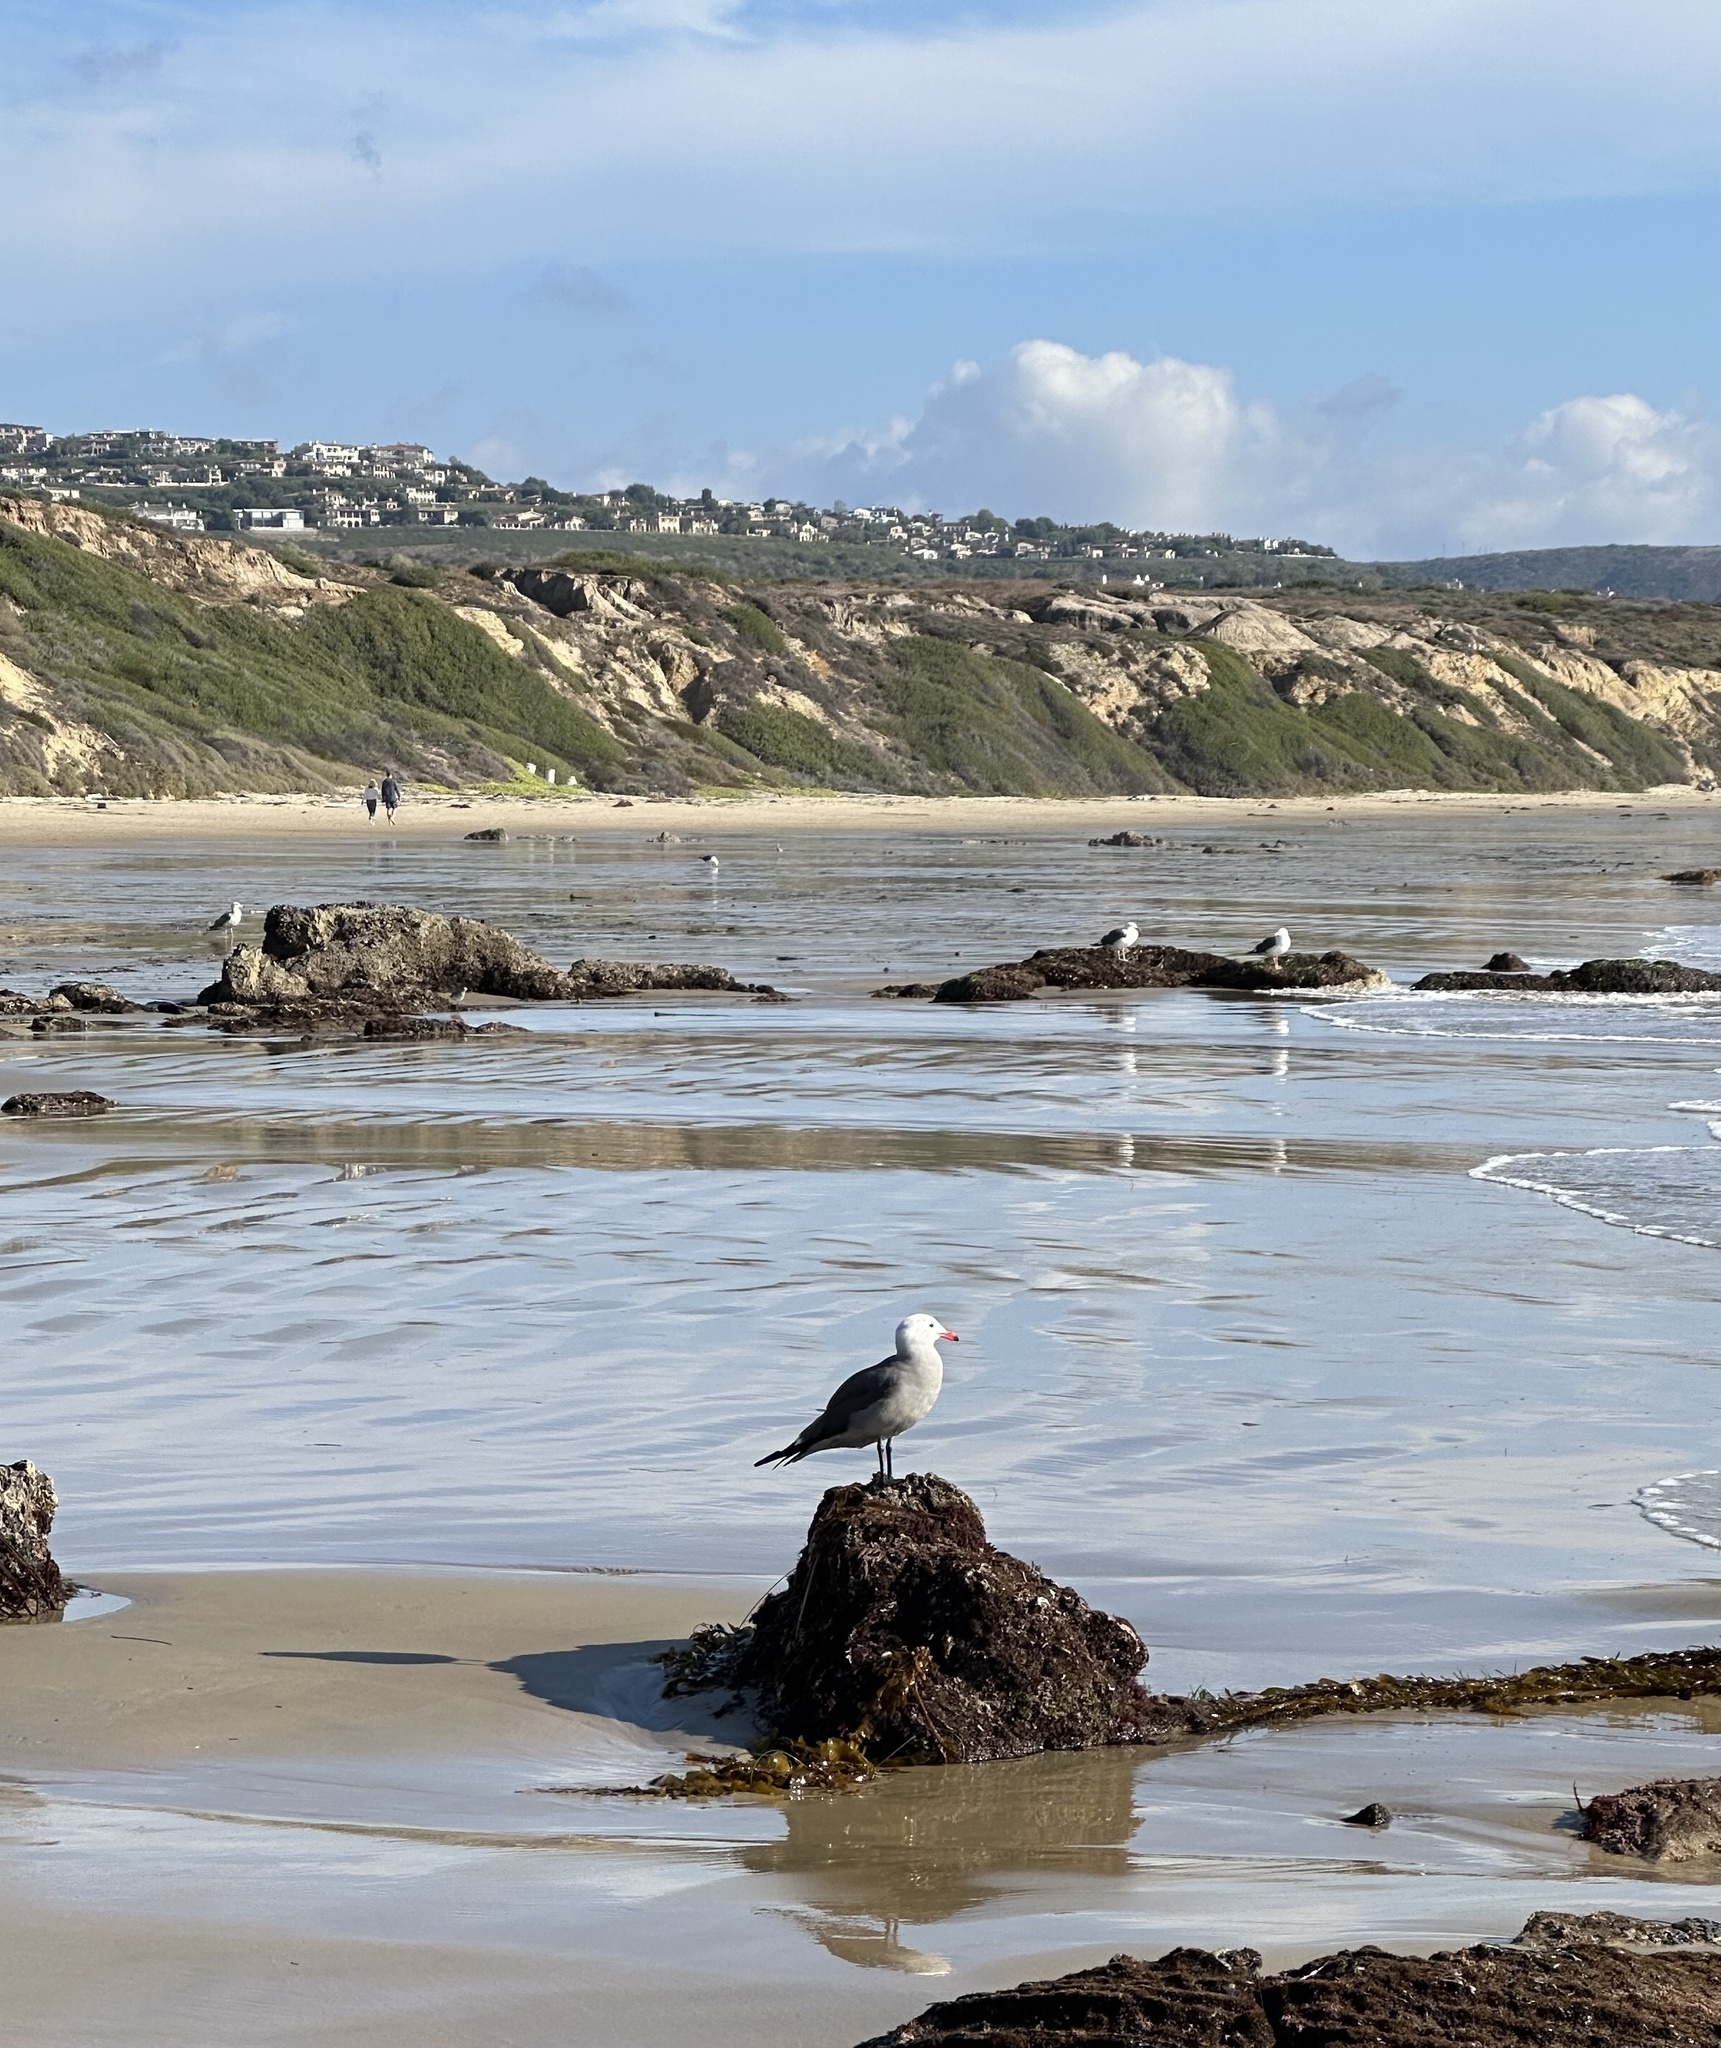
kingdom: Animalia
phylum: Chordata
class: Aves
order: Charadriiformes
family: Laridae
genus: Larus
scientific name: Larus heermanni
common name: Heermann's gull
